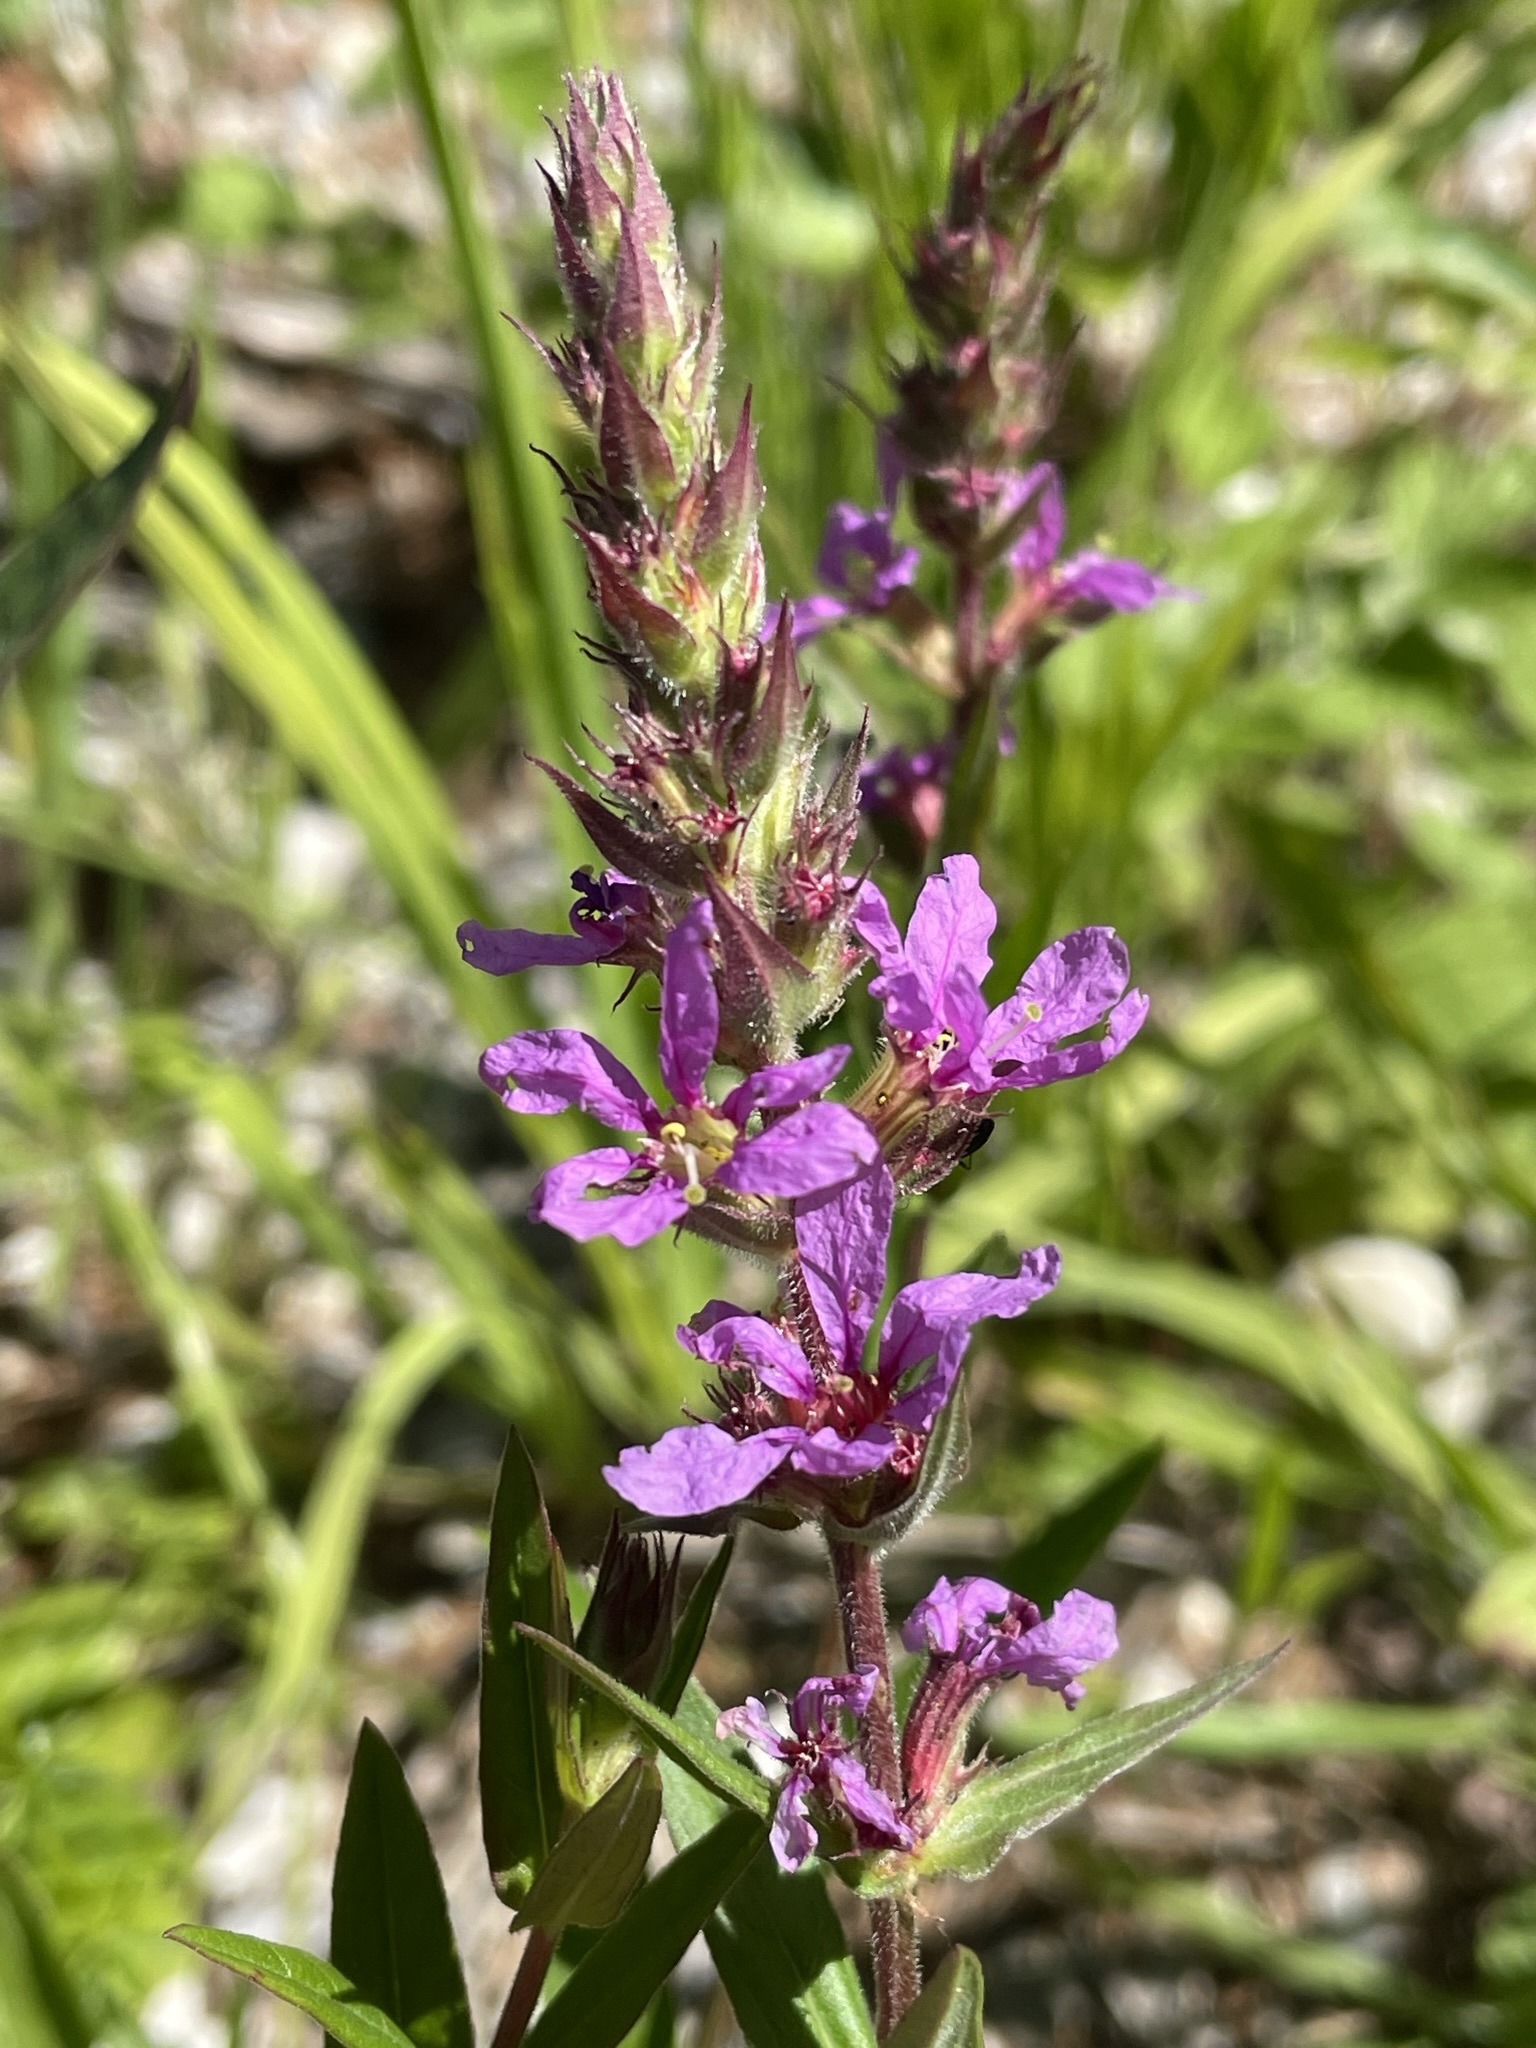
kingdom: Plantae
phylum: Tracheophyta
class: Magnoliopsida
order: Myrtales
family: Lythraceae
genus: Lythrum
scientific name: Lythrum salicaria
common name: Purple loosestrife
